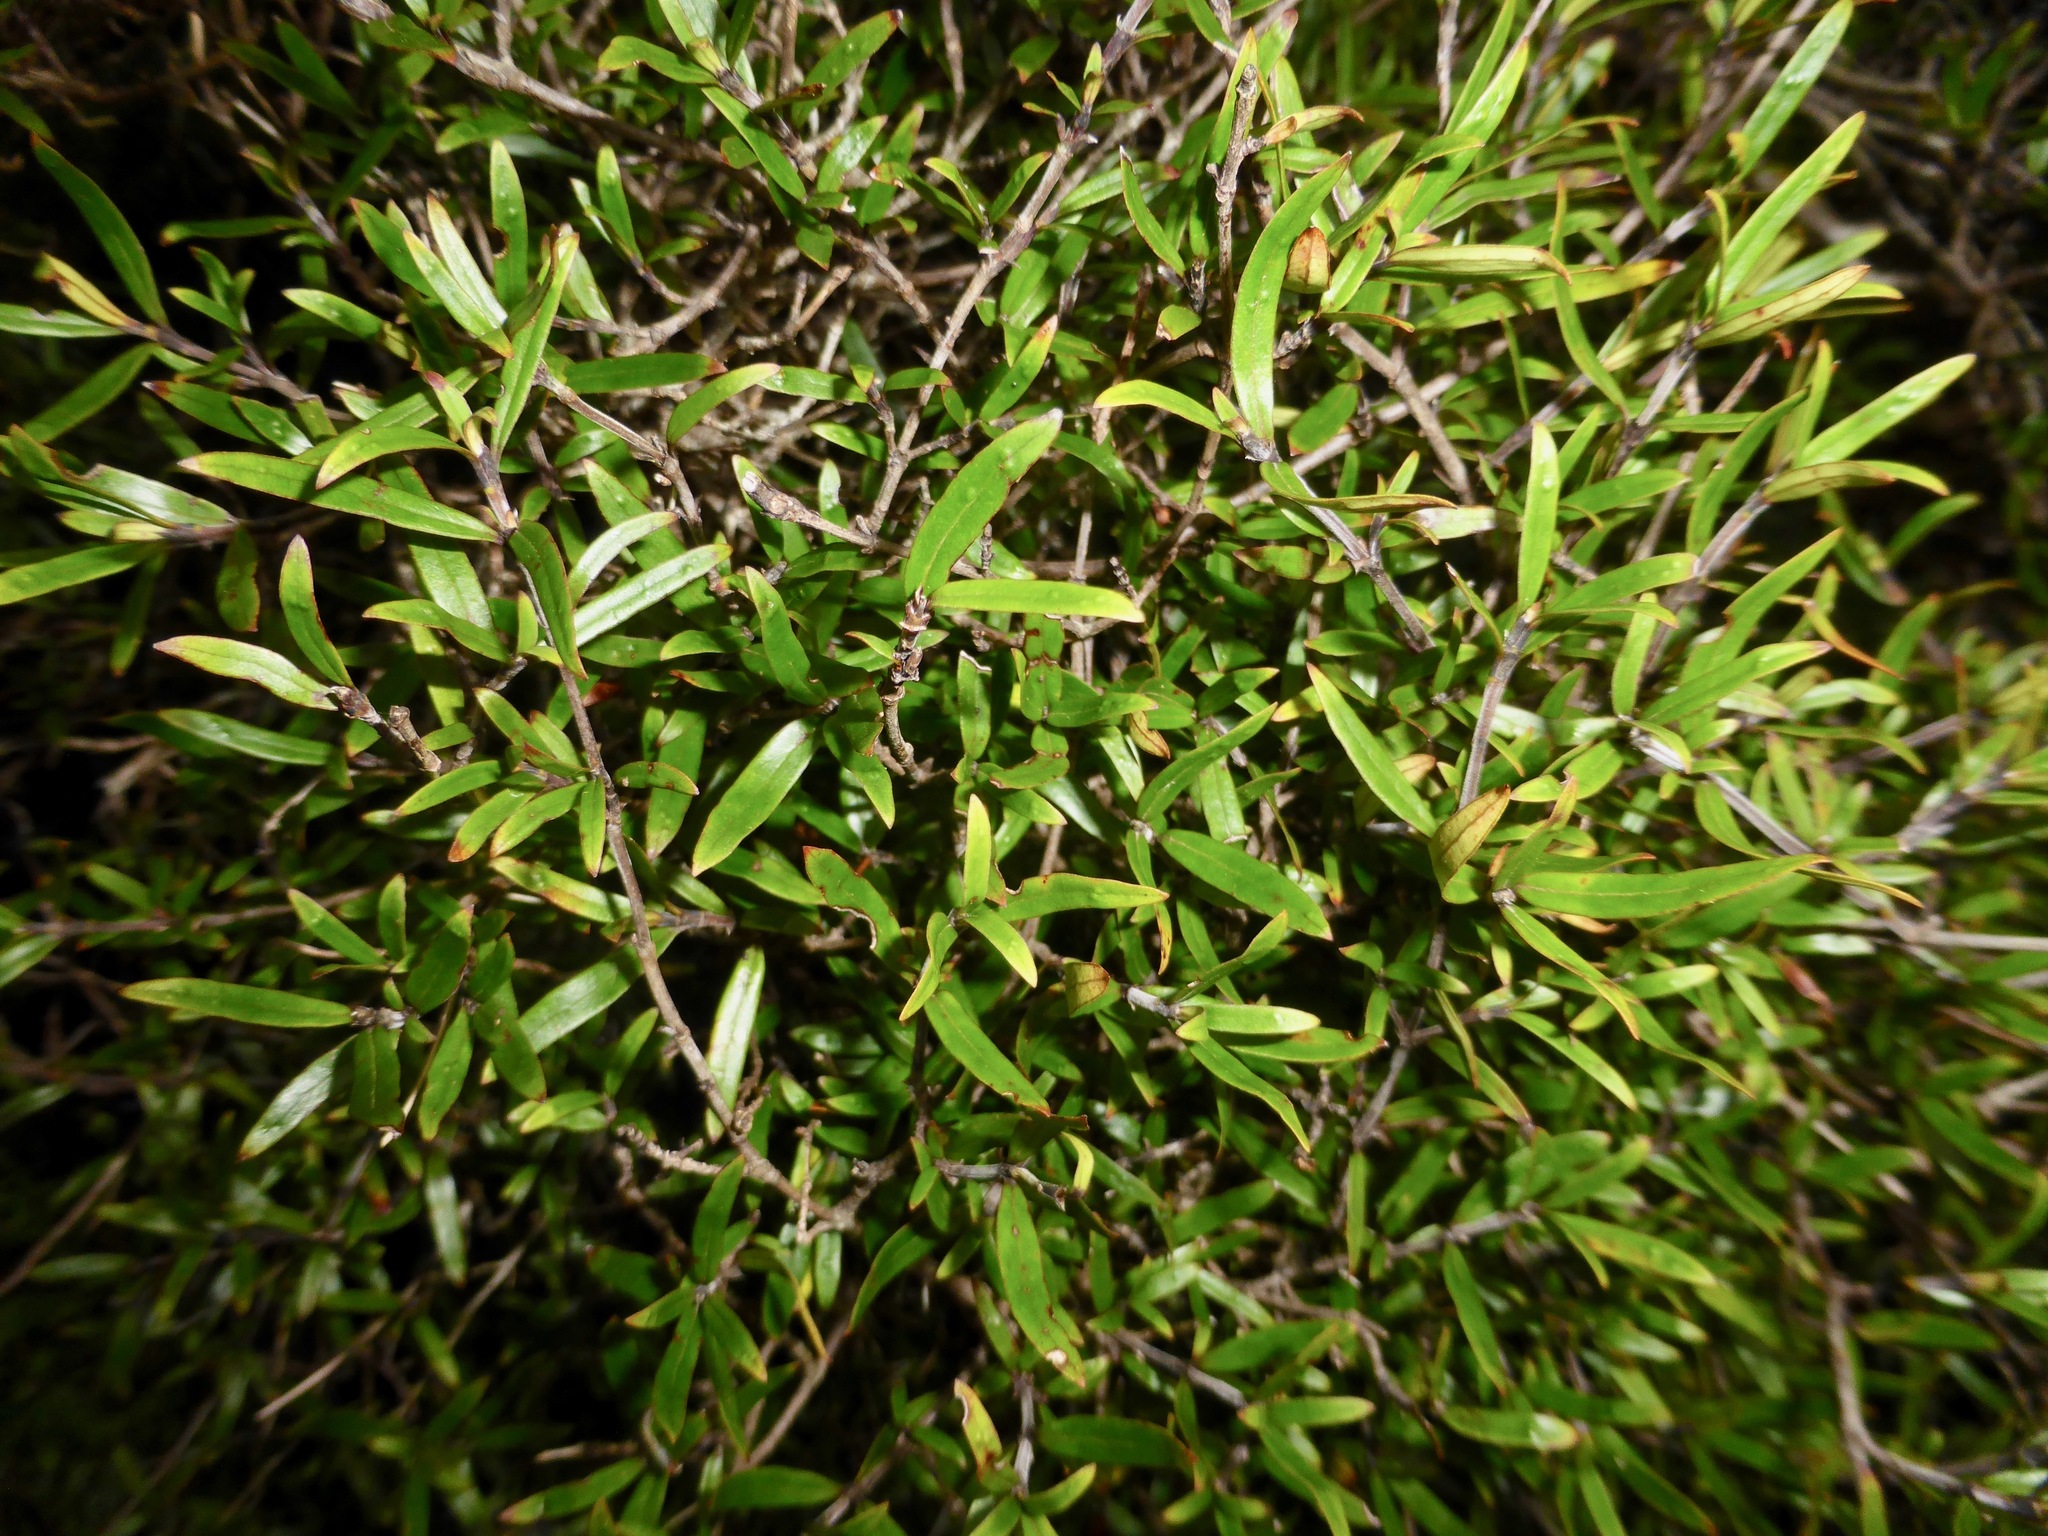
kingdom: Plantae
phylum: Tracheophyta
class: Magnoliopsida
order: Gentianales
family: Rubiaceae
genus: Coprosma
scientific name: Coprosma linariifolia
